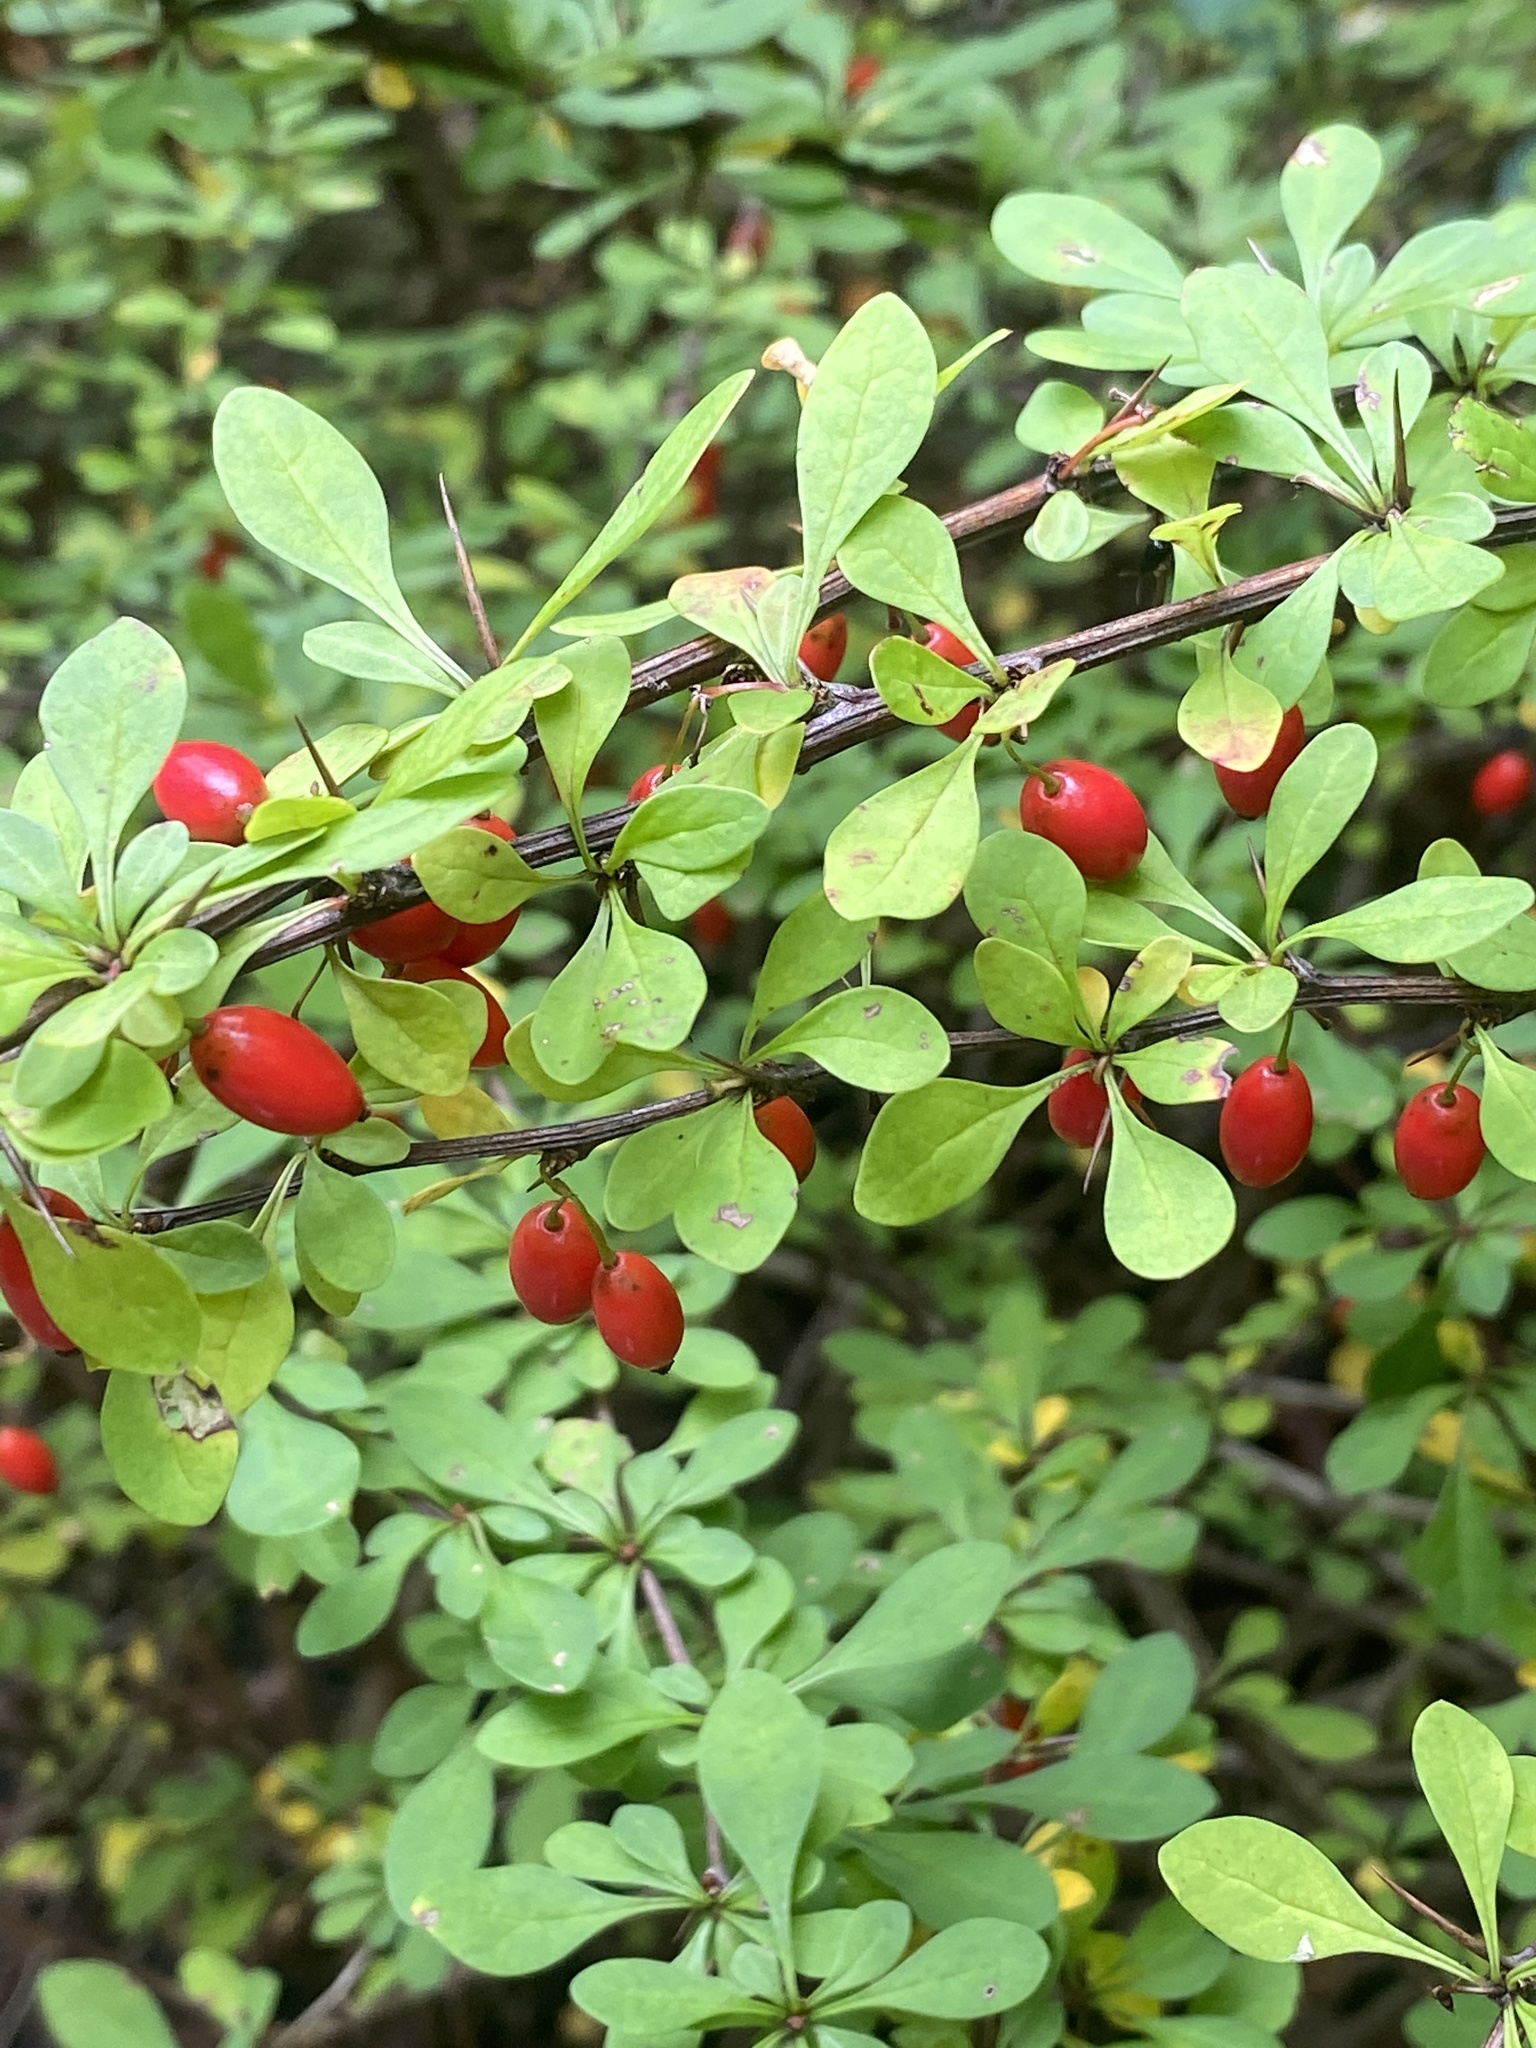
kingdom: Plantae
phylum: Tracheophyta
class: Magnoliopsida
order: Ranunculales
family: Berberidaceae
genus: Berberis
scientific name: Berberis thunbergii
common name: Japanese barberry
